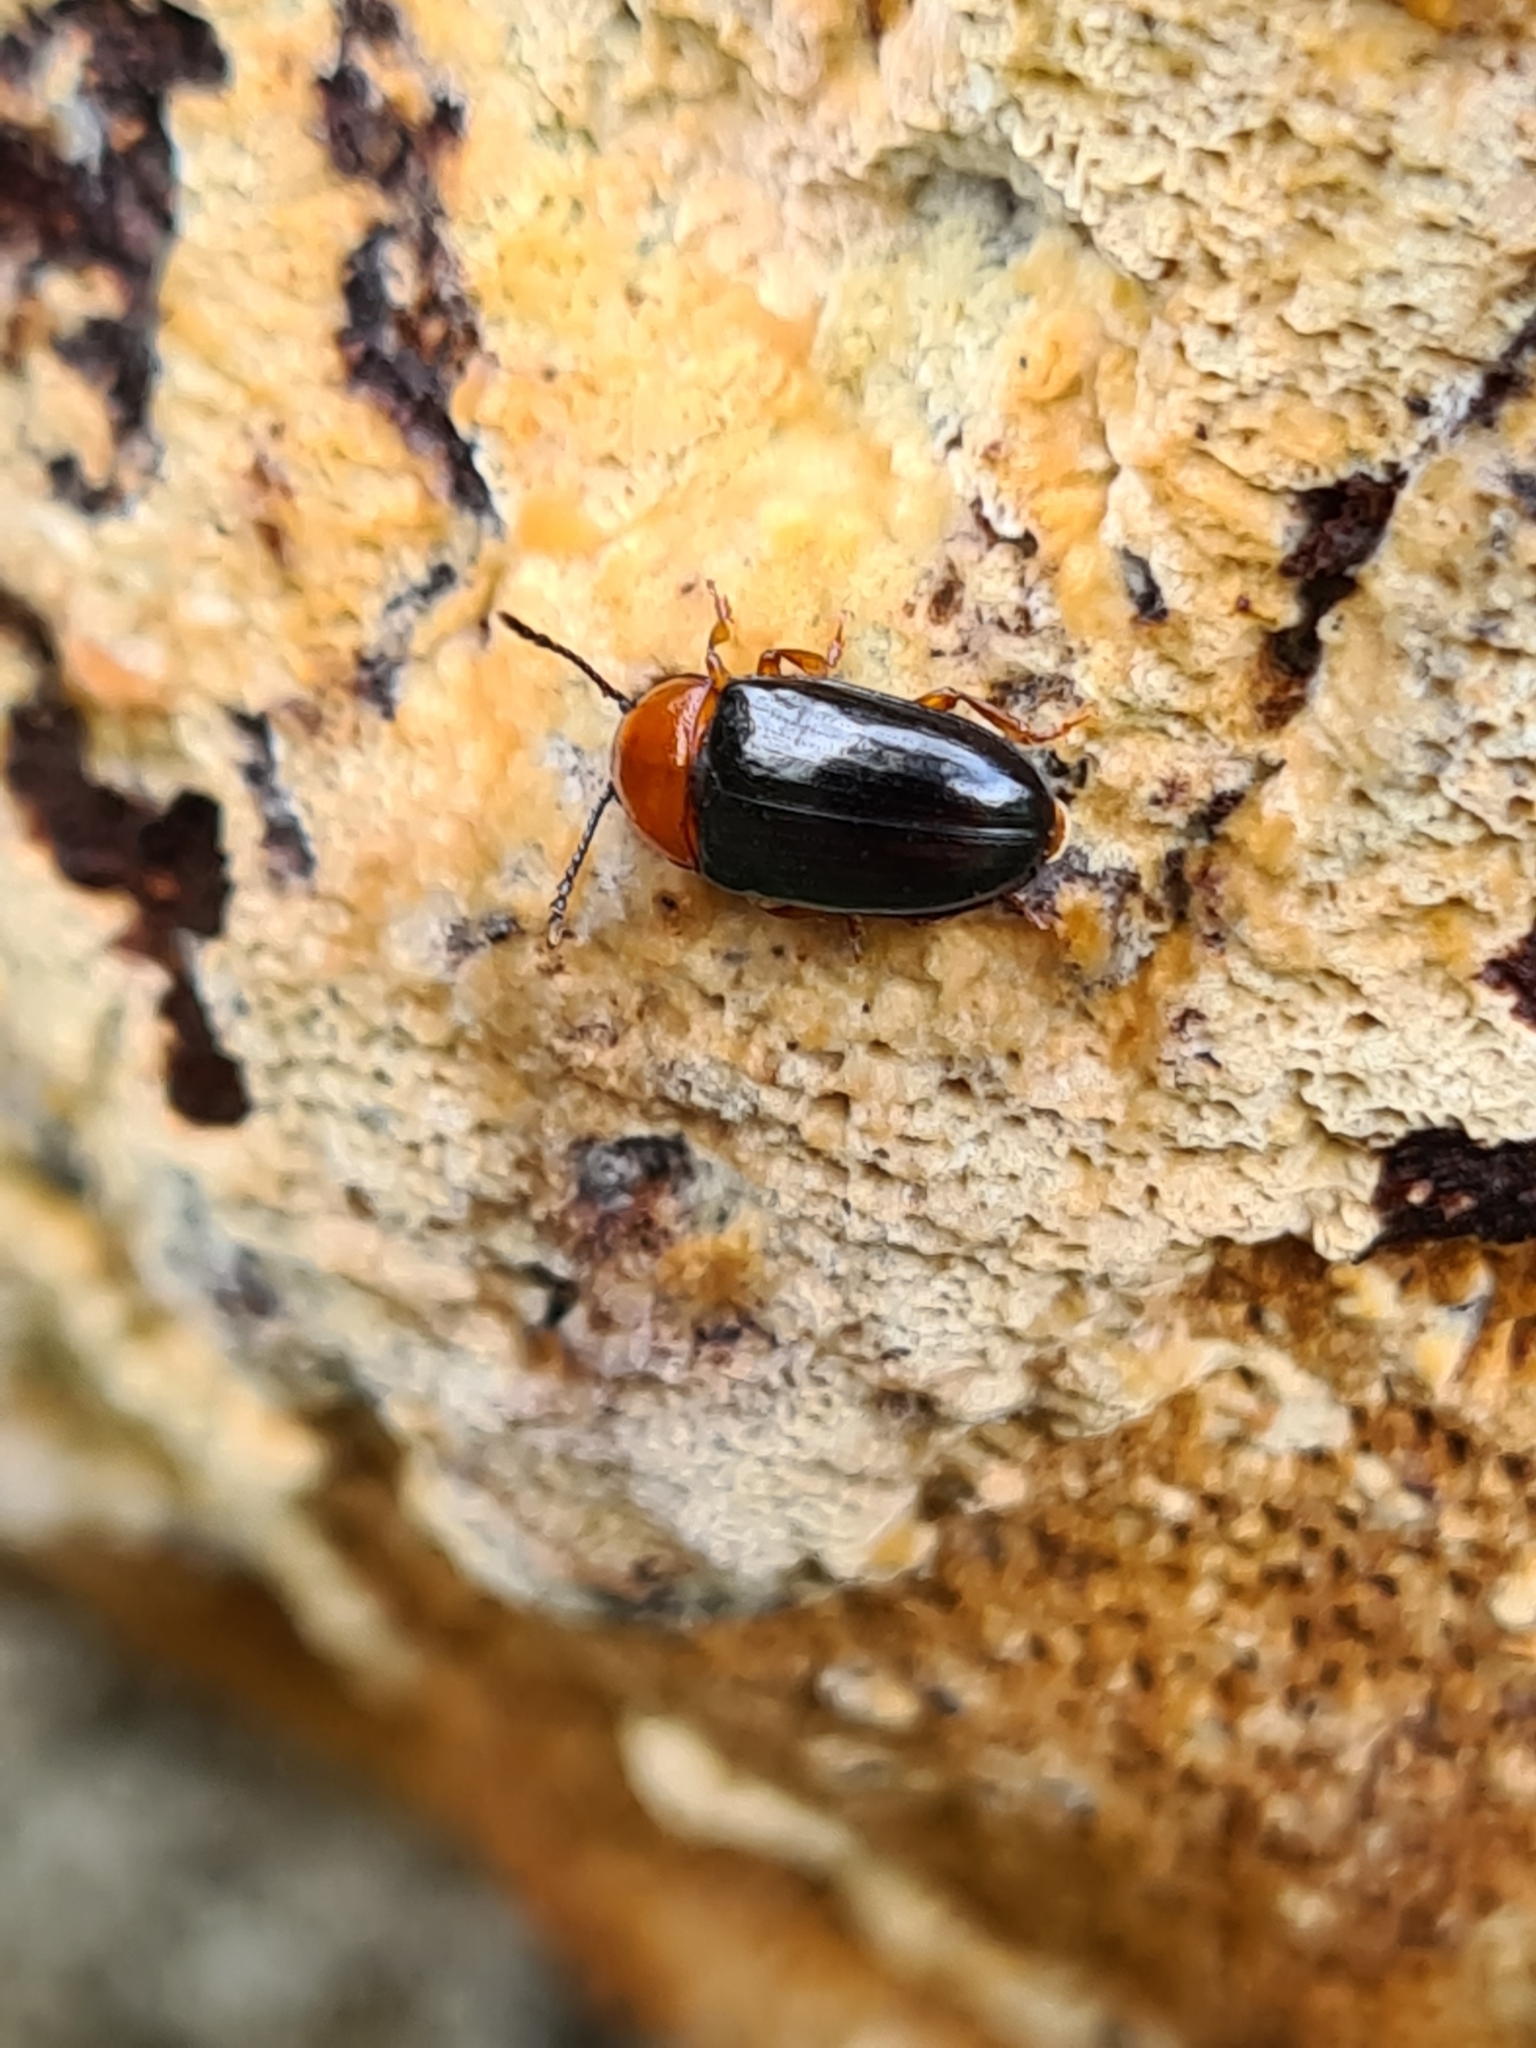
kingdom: Animalia
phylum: Arthropoda
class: Insecta
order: Coleoptera
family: Erotylidae
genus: Triplax
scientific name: Triplax russica
